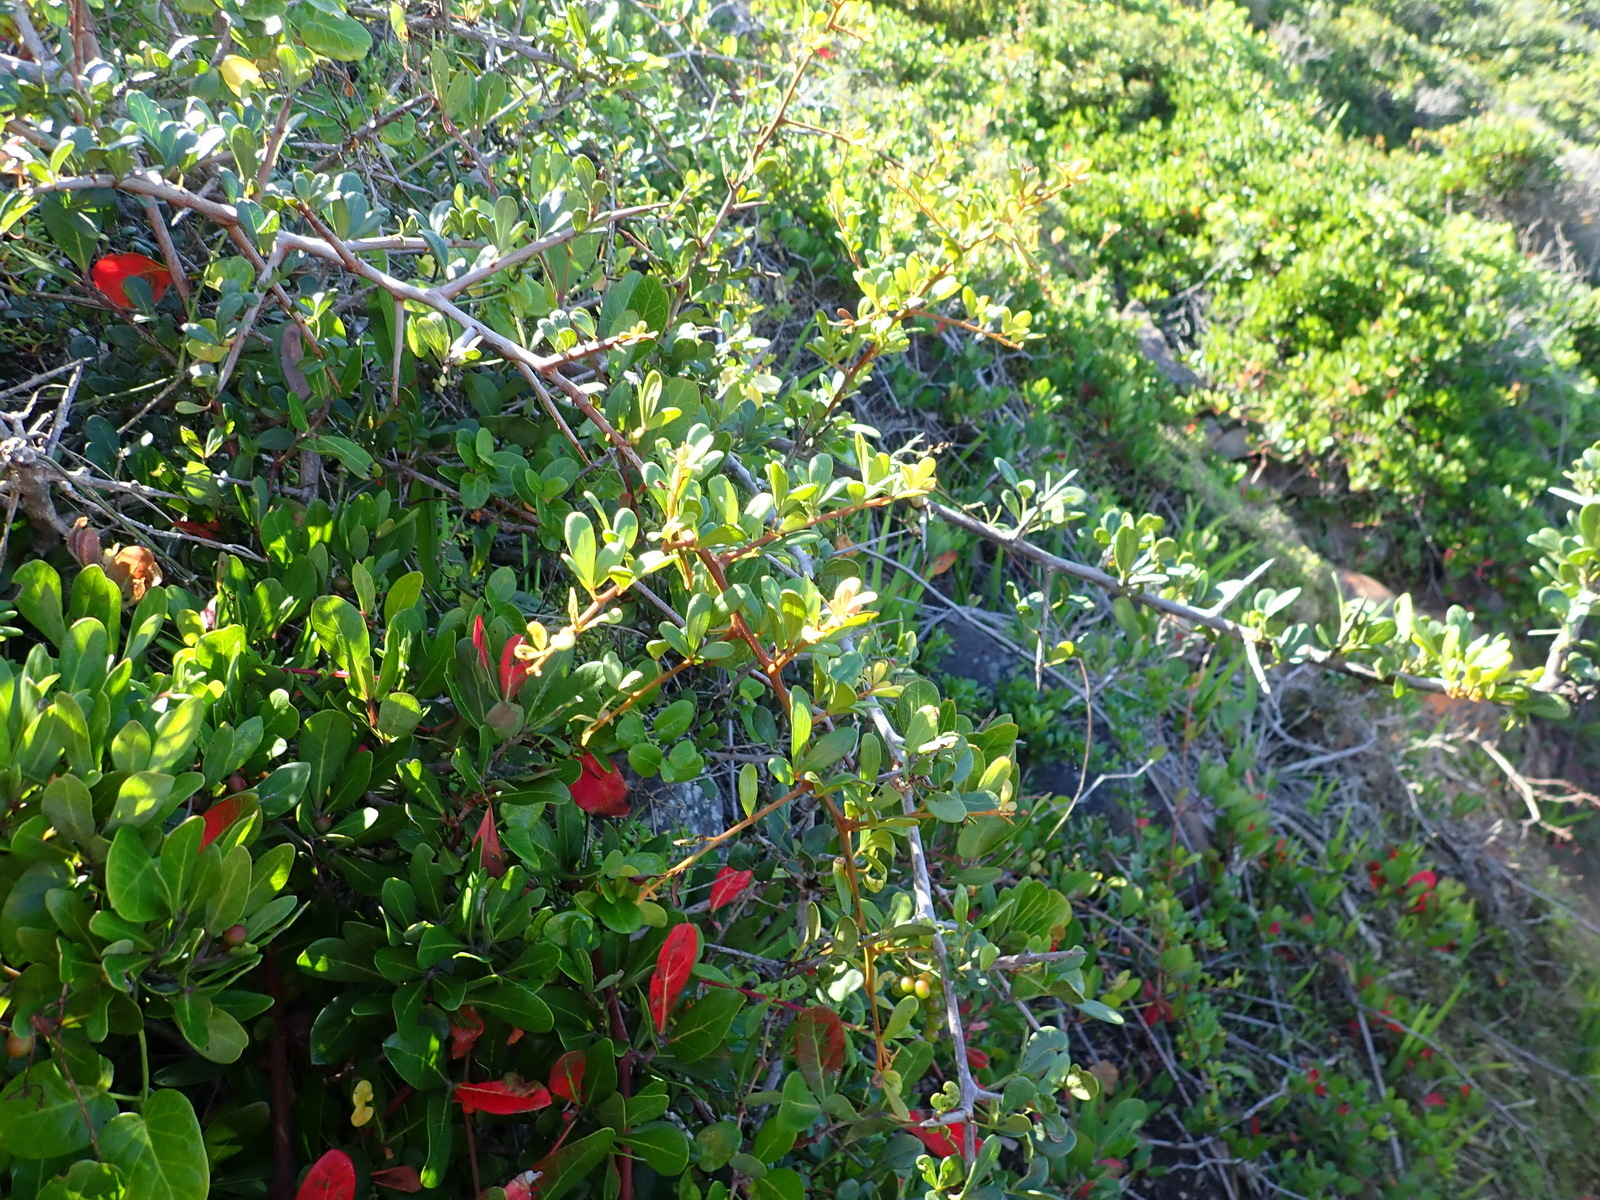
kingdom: Plantae
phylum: Tracheophyta
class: Magnoliopsida
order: Sapindales
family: Anacardiaceae
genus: Searsia
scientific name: Searsia pterota
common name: Winged currant
